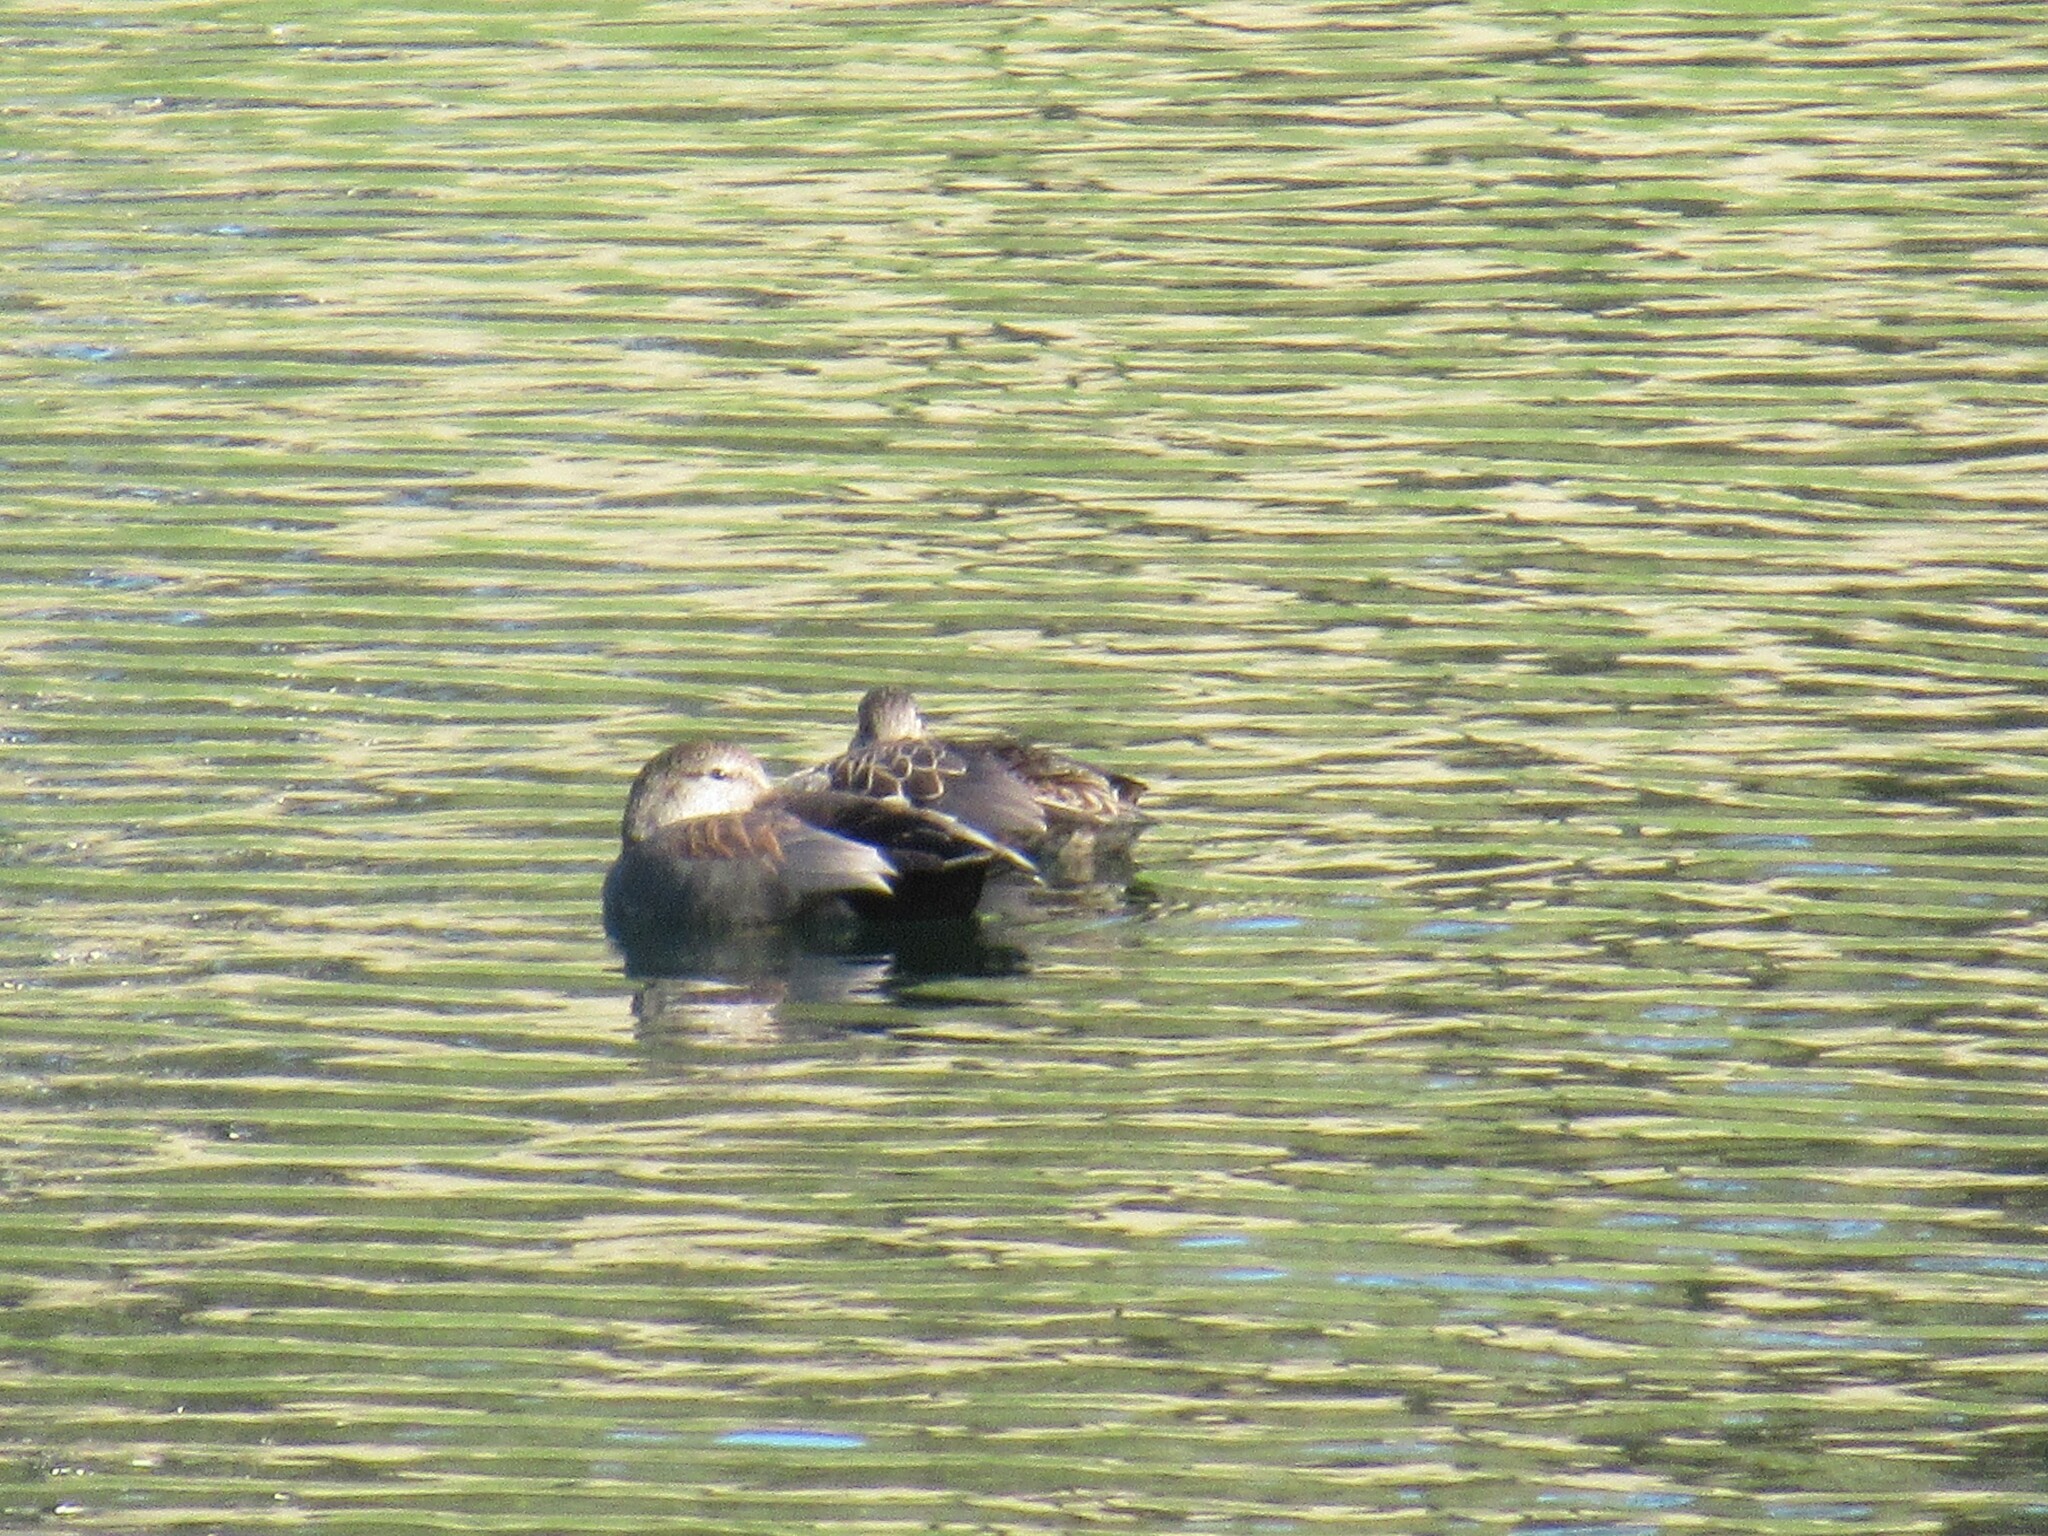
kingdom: Animalia
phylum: Chordata
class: Aves
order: Anseriformes
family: Anatidae
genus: Mareca
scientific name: Mareca strepera
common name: Gadwall
